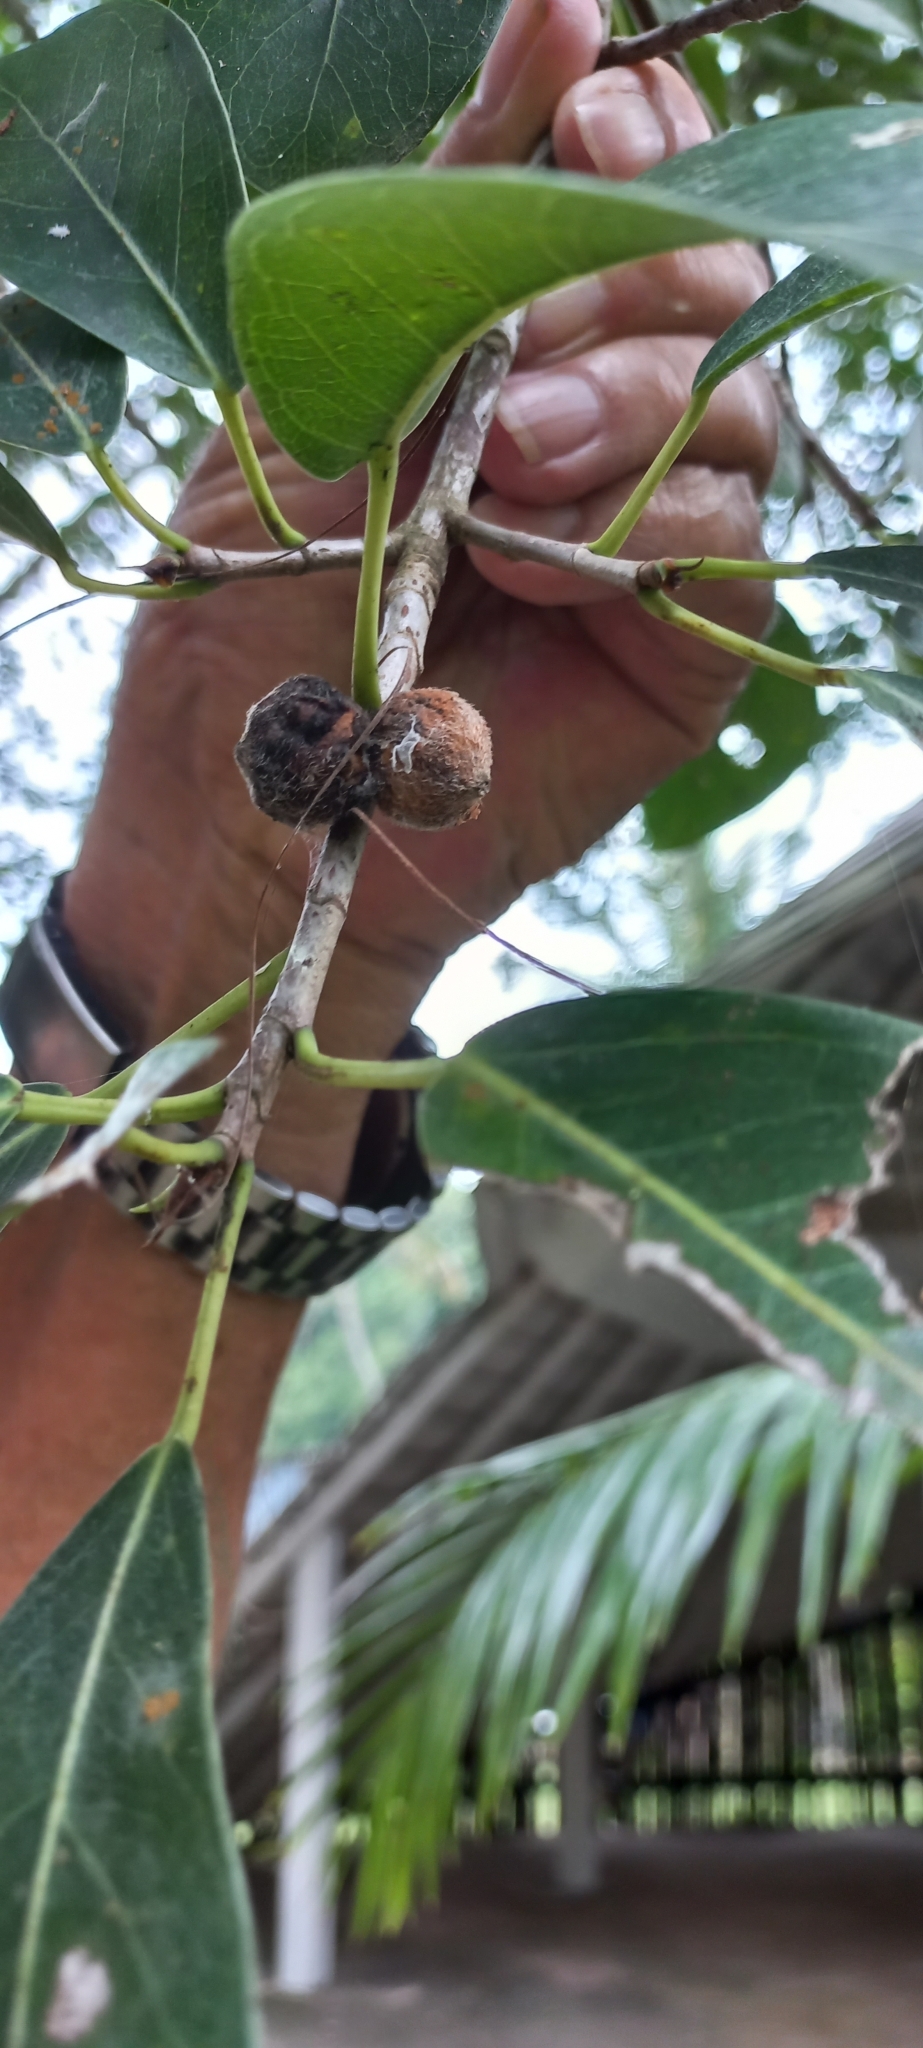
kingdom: Plantae
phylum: Tracheophyta
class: Magnoliopsida
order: Rosales
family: Moraceae
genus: Ficus
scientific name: Ficus thonningii
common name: Fig
